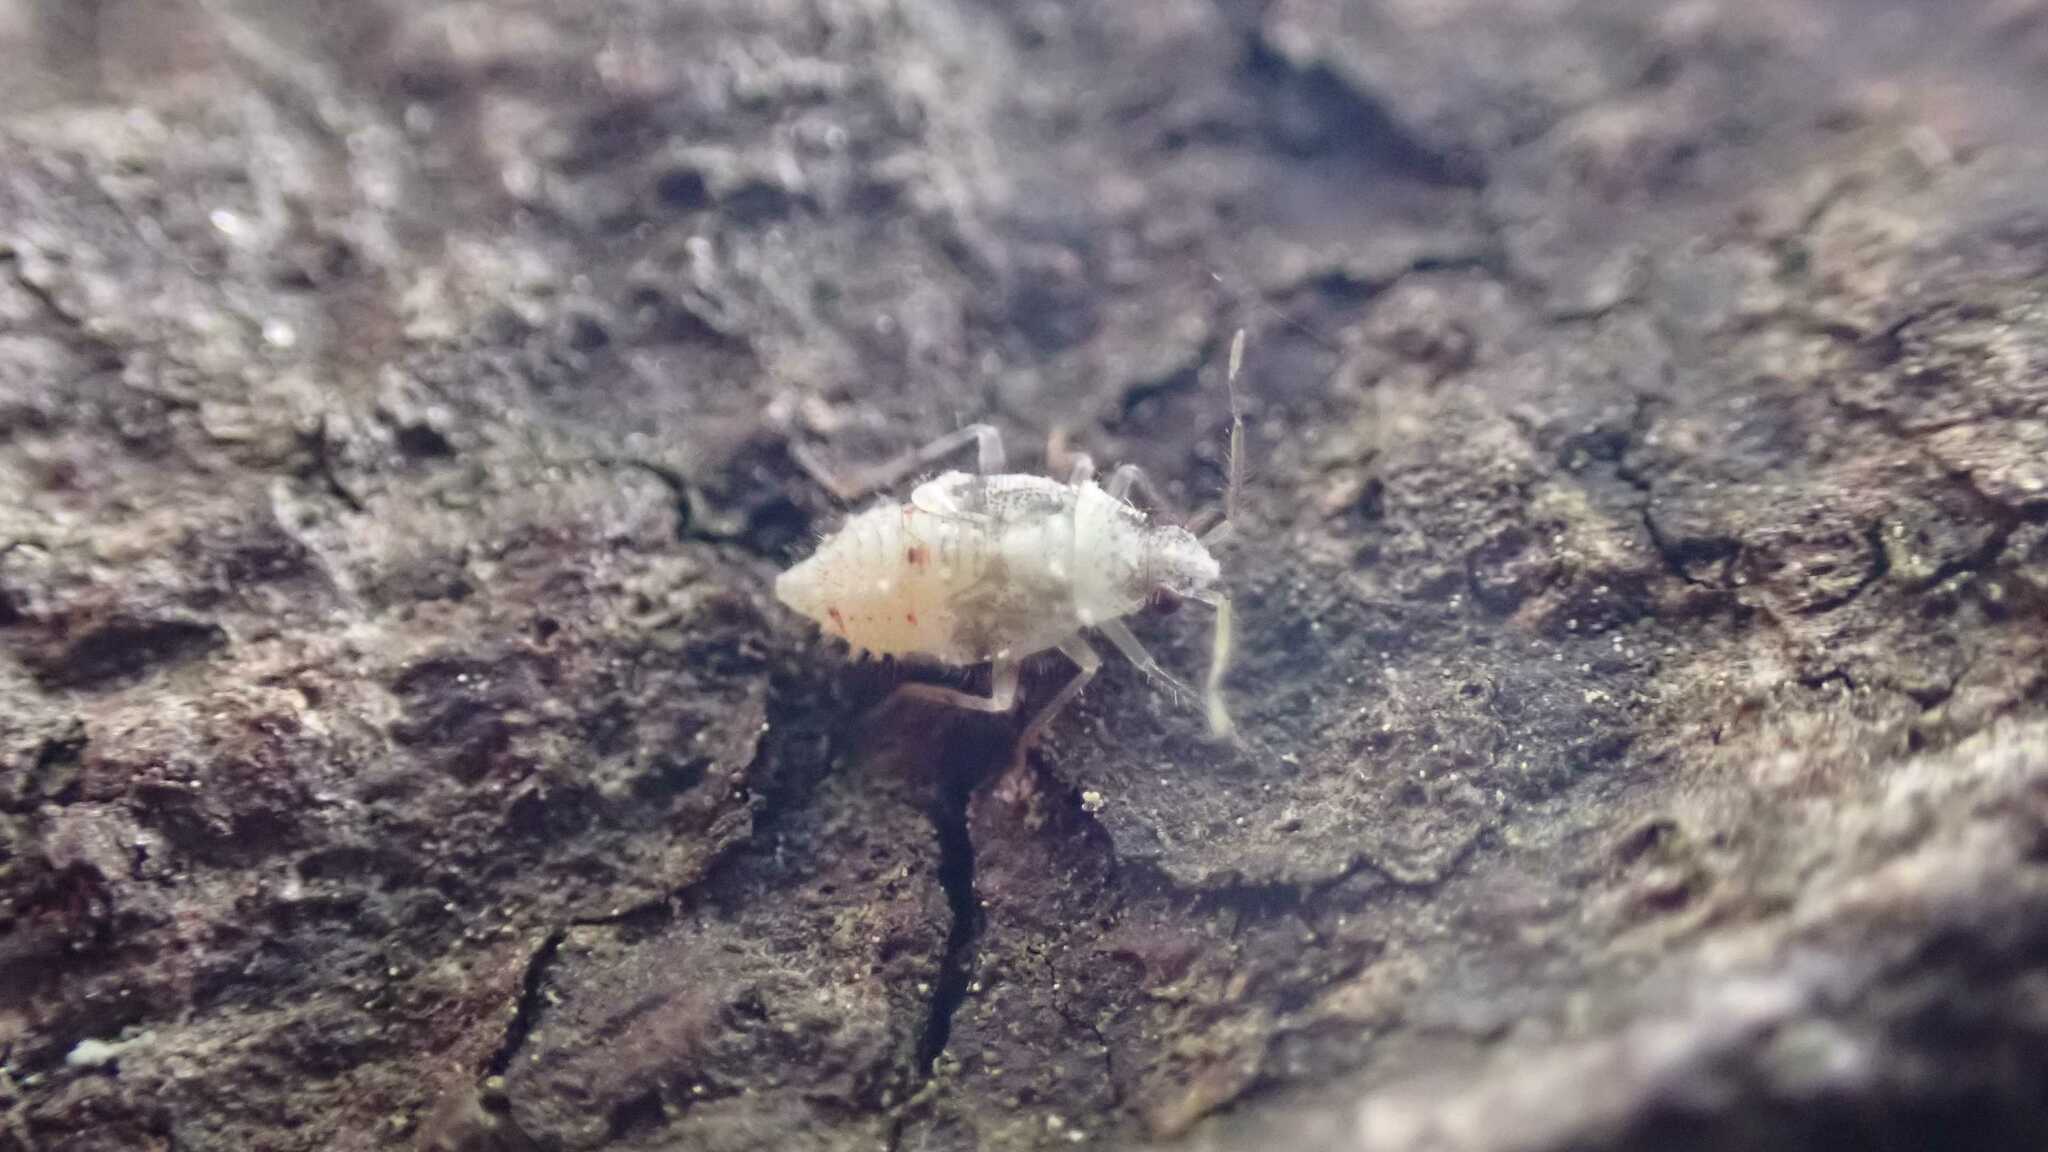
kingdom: Animalia
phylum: Arthropoda
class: Insecta
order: Hemiptera
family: Miridae
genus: Deraeocoris
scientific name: Deraeocoris lutescens
